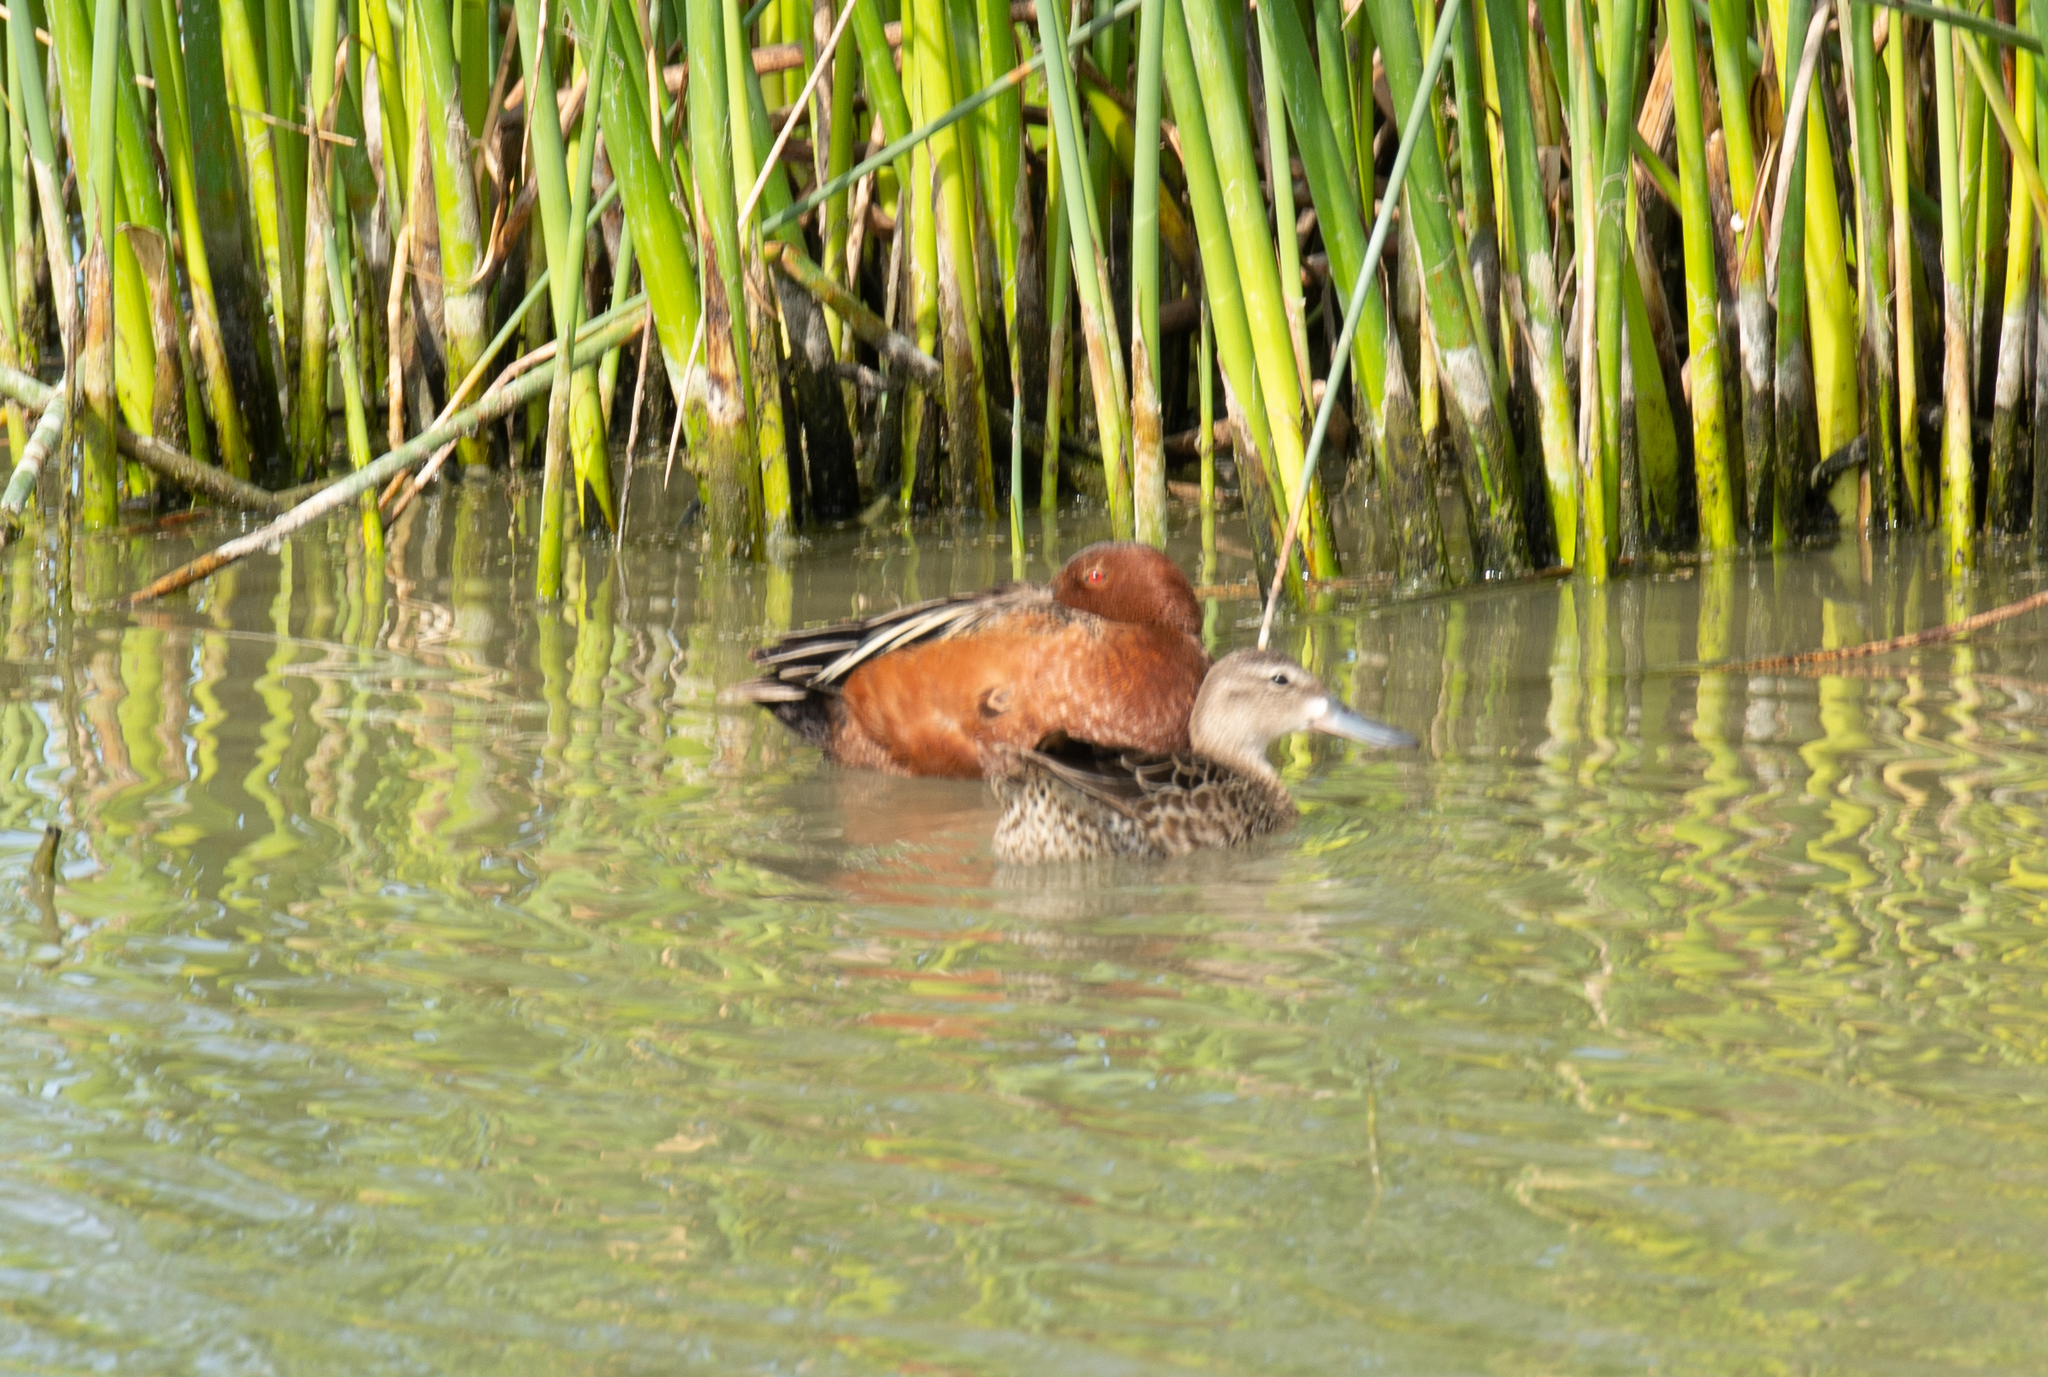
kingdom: Animalia
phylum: Chordata
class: Aves
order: Anseriformes
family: Anatidae
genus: Spatula
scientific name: Spatula cyanoptera
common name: Cinnamon teal
